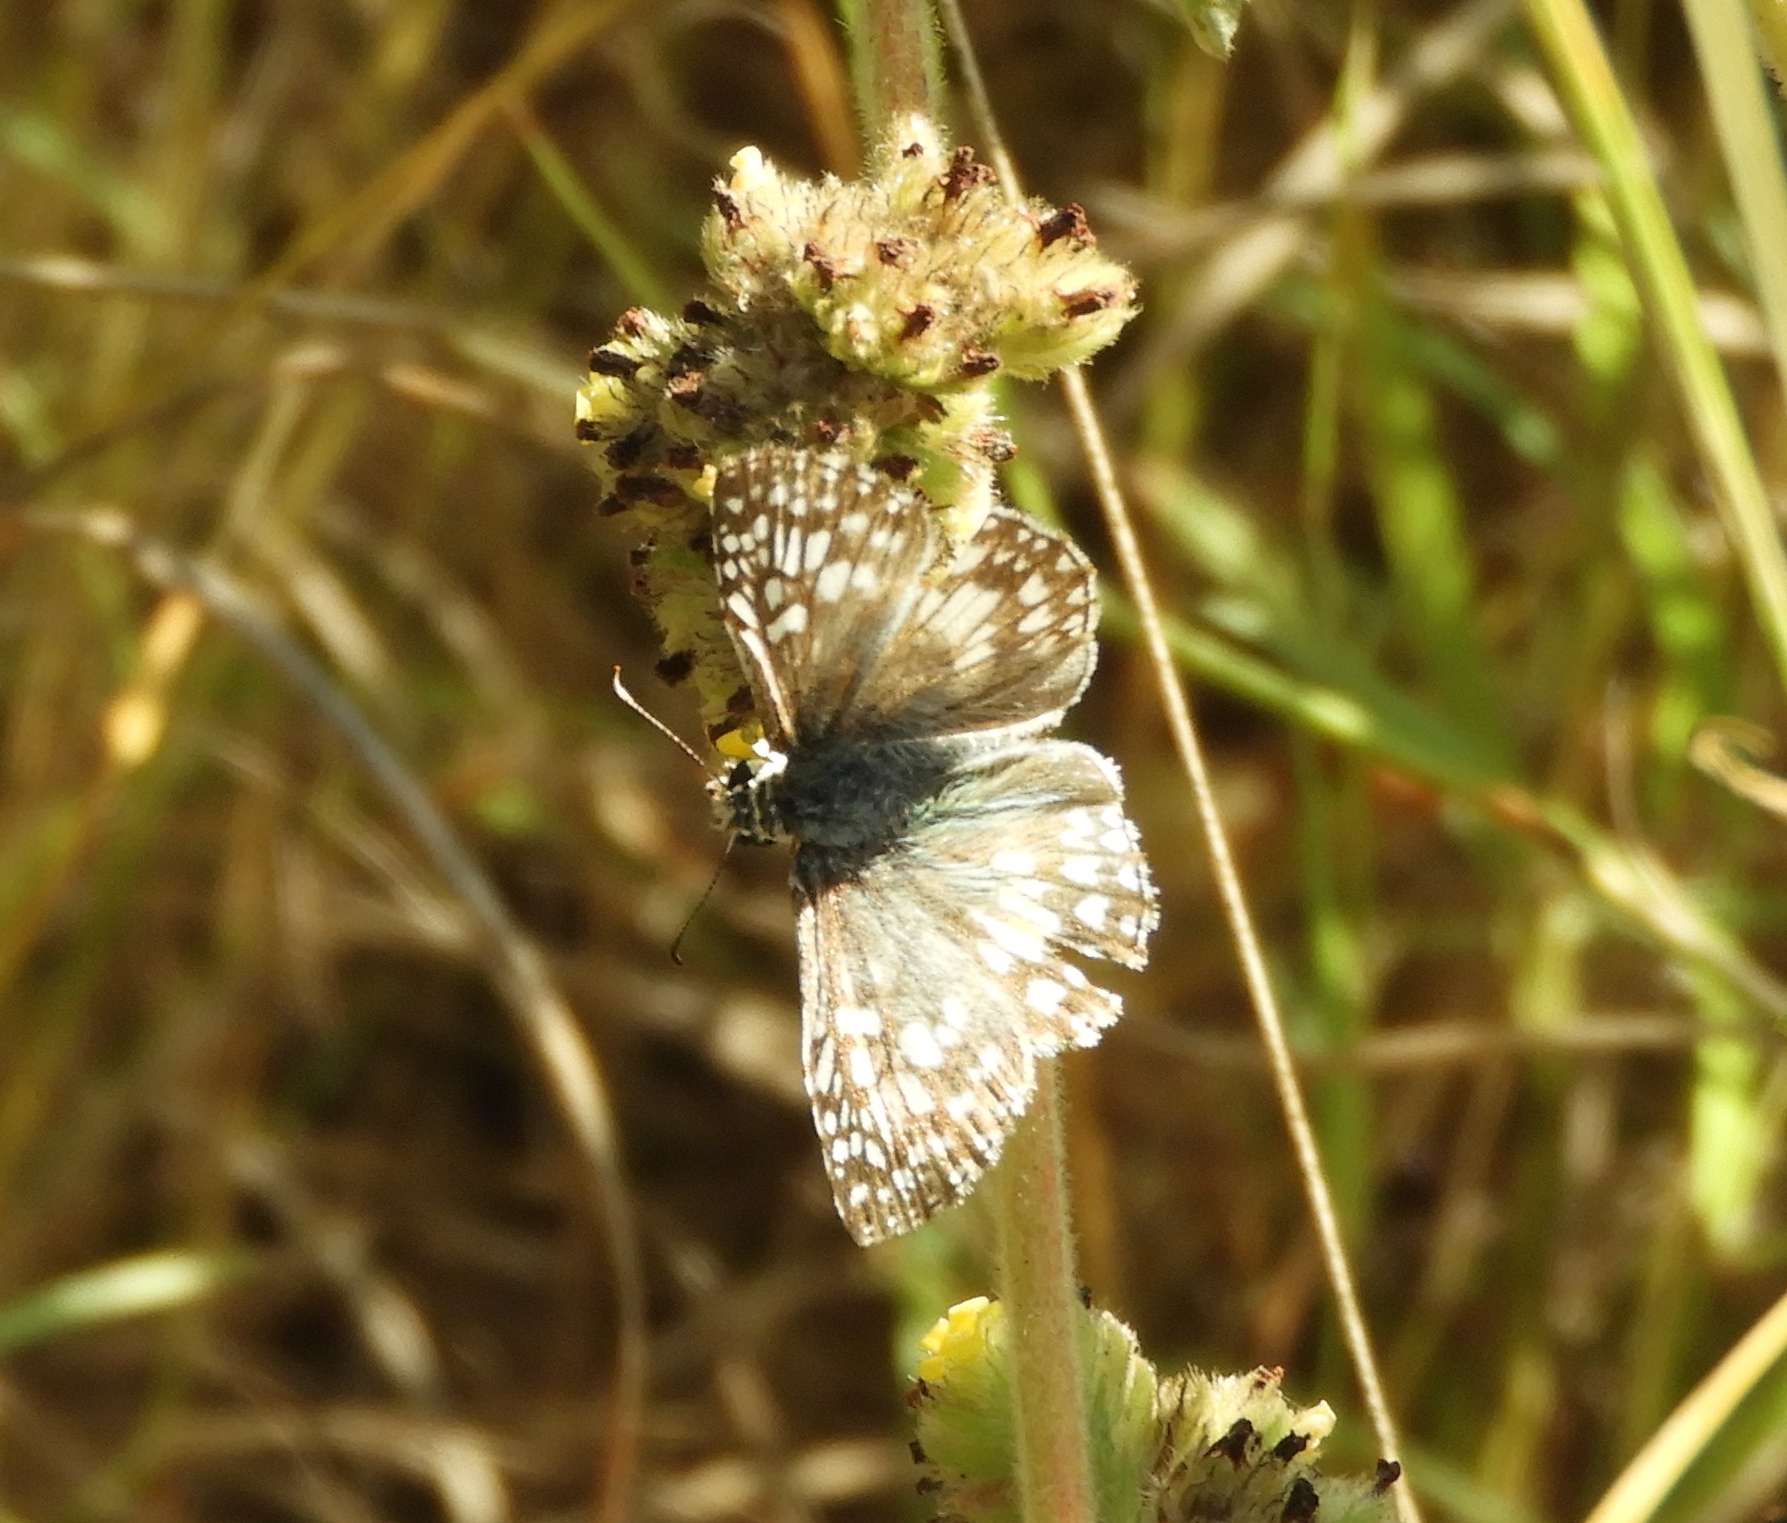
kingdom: Animalia
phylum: Arthropoda
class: Insecta
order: Lepidoptera
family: Hesperiidae
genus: Pyrgus
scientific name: Pyrgus oileus
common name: Tropical checkered-skipper
